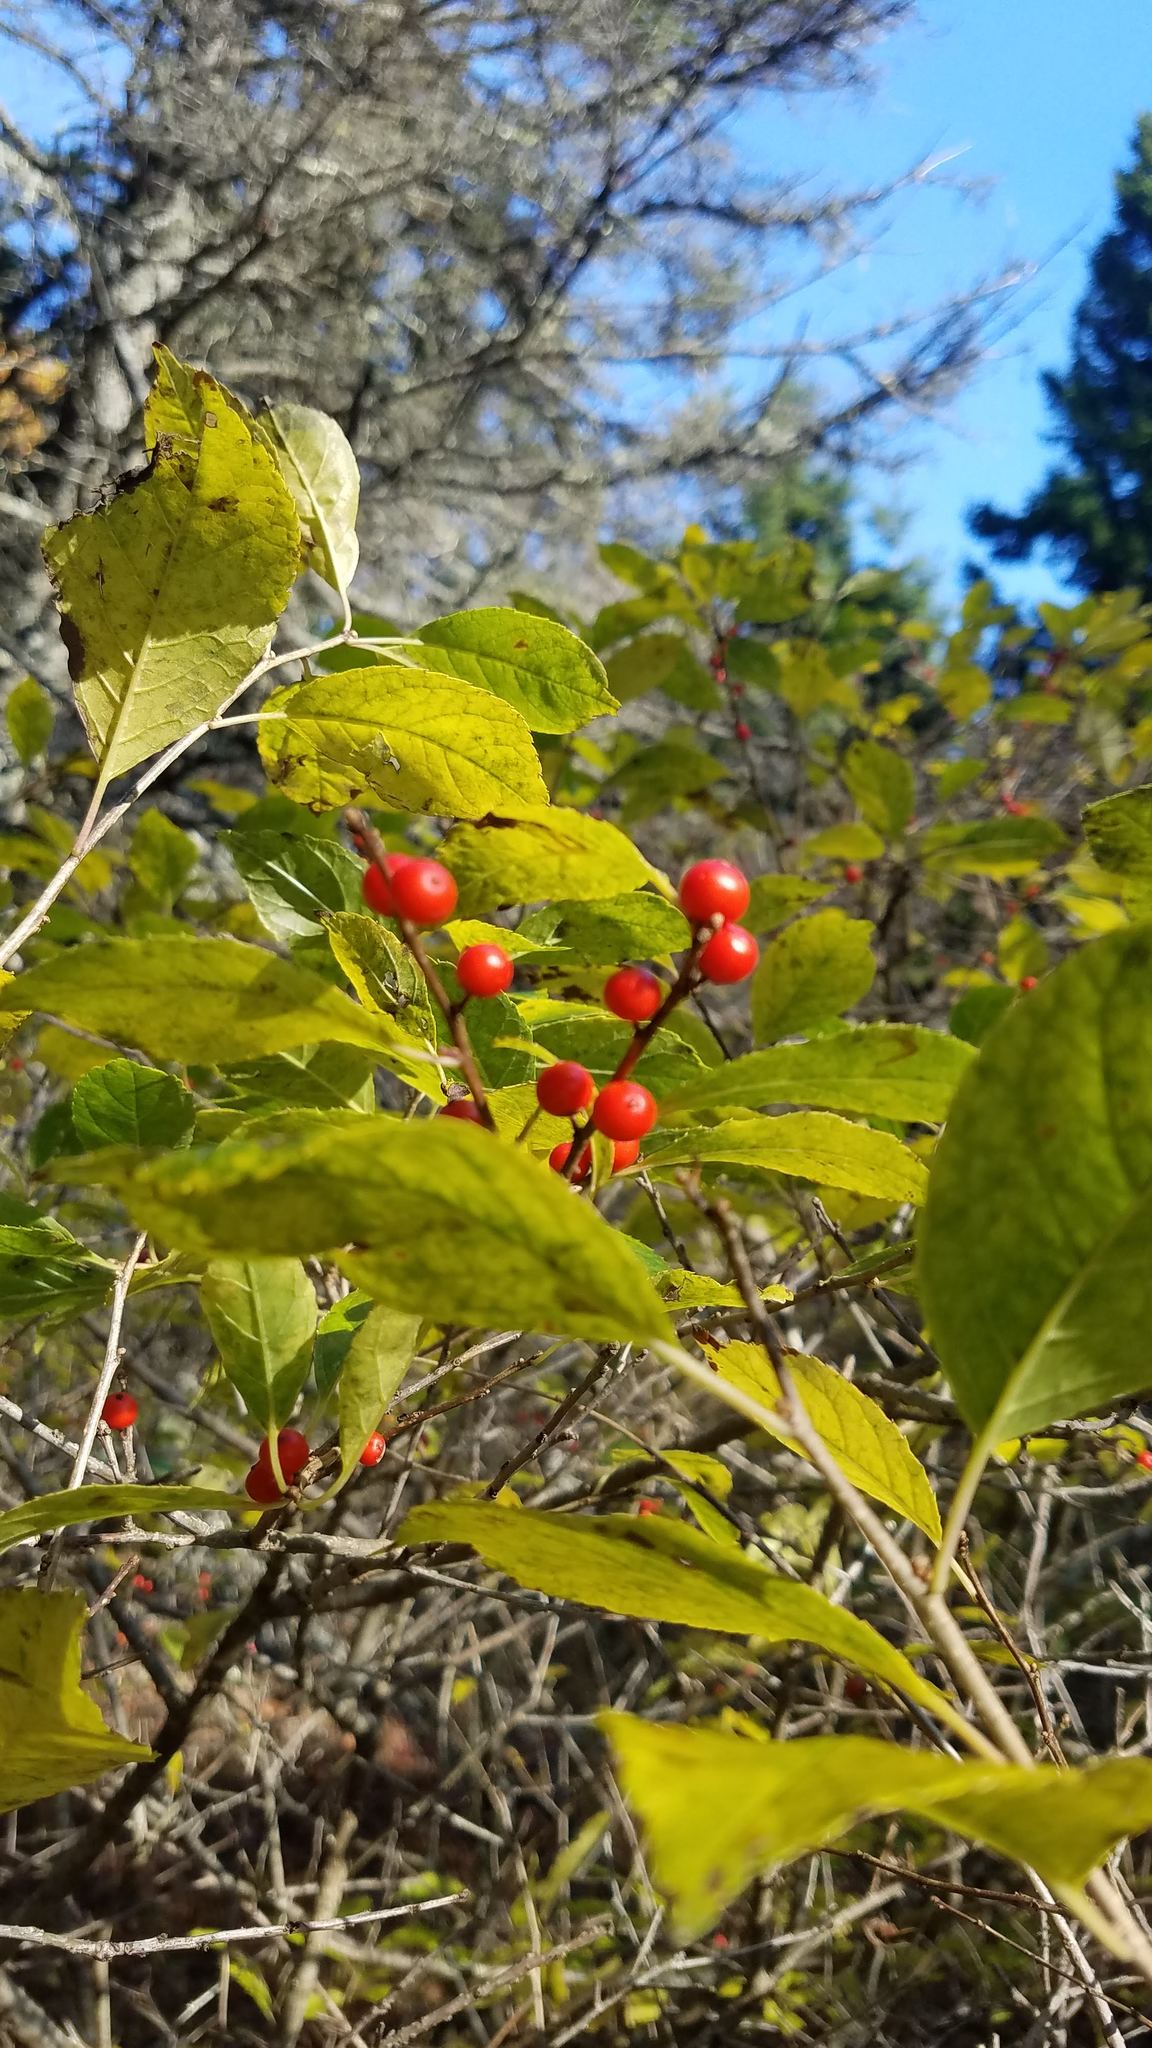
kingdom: Plantae
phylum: Tracheophyta
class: Magnoliopsida
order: Aquifoliales
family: Aquifoliaceae
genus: Ilex
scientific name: Ilex verticillata
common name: Virginia winterberry
